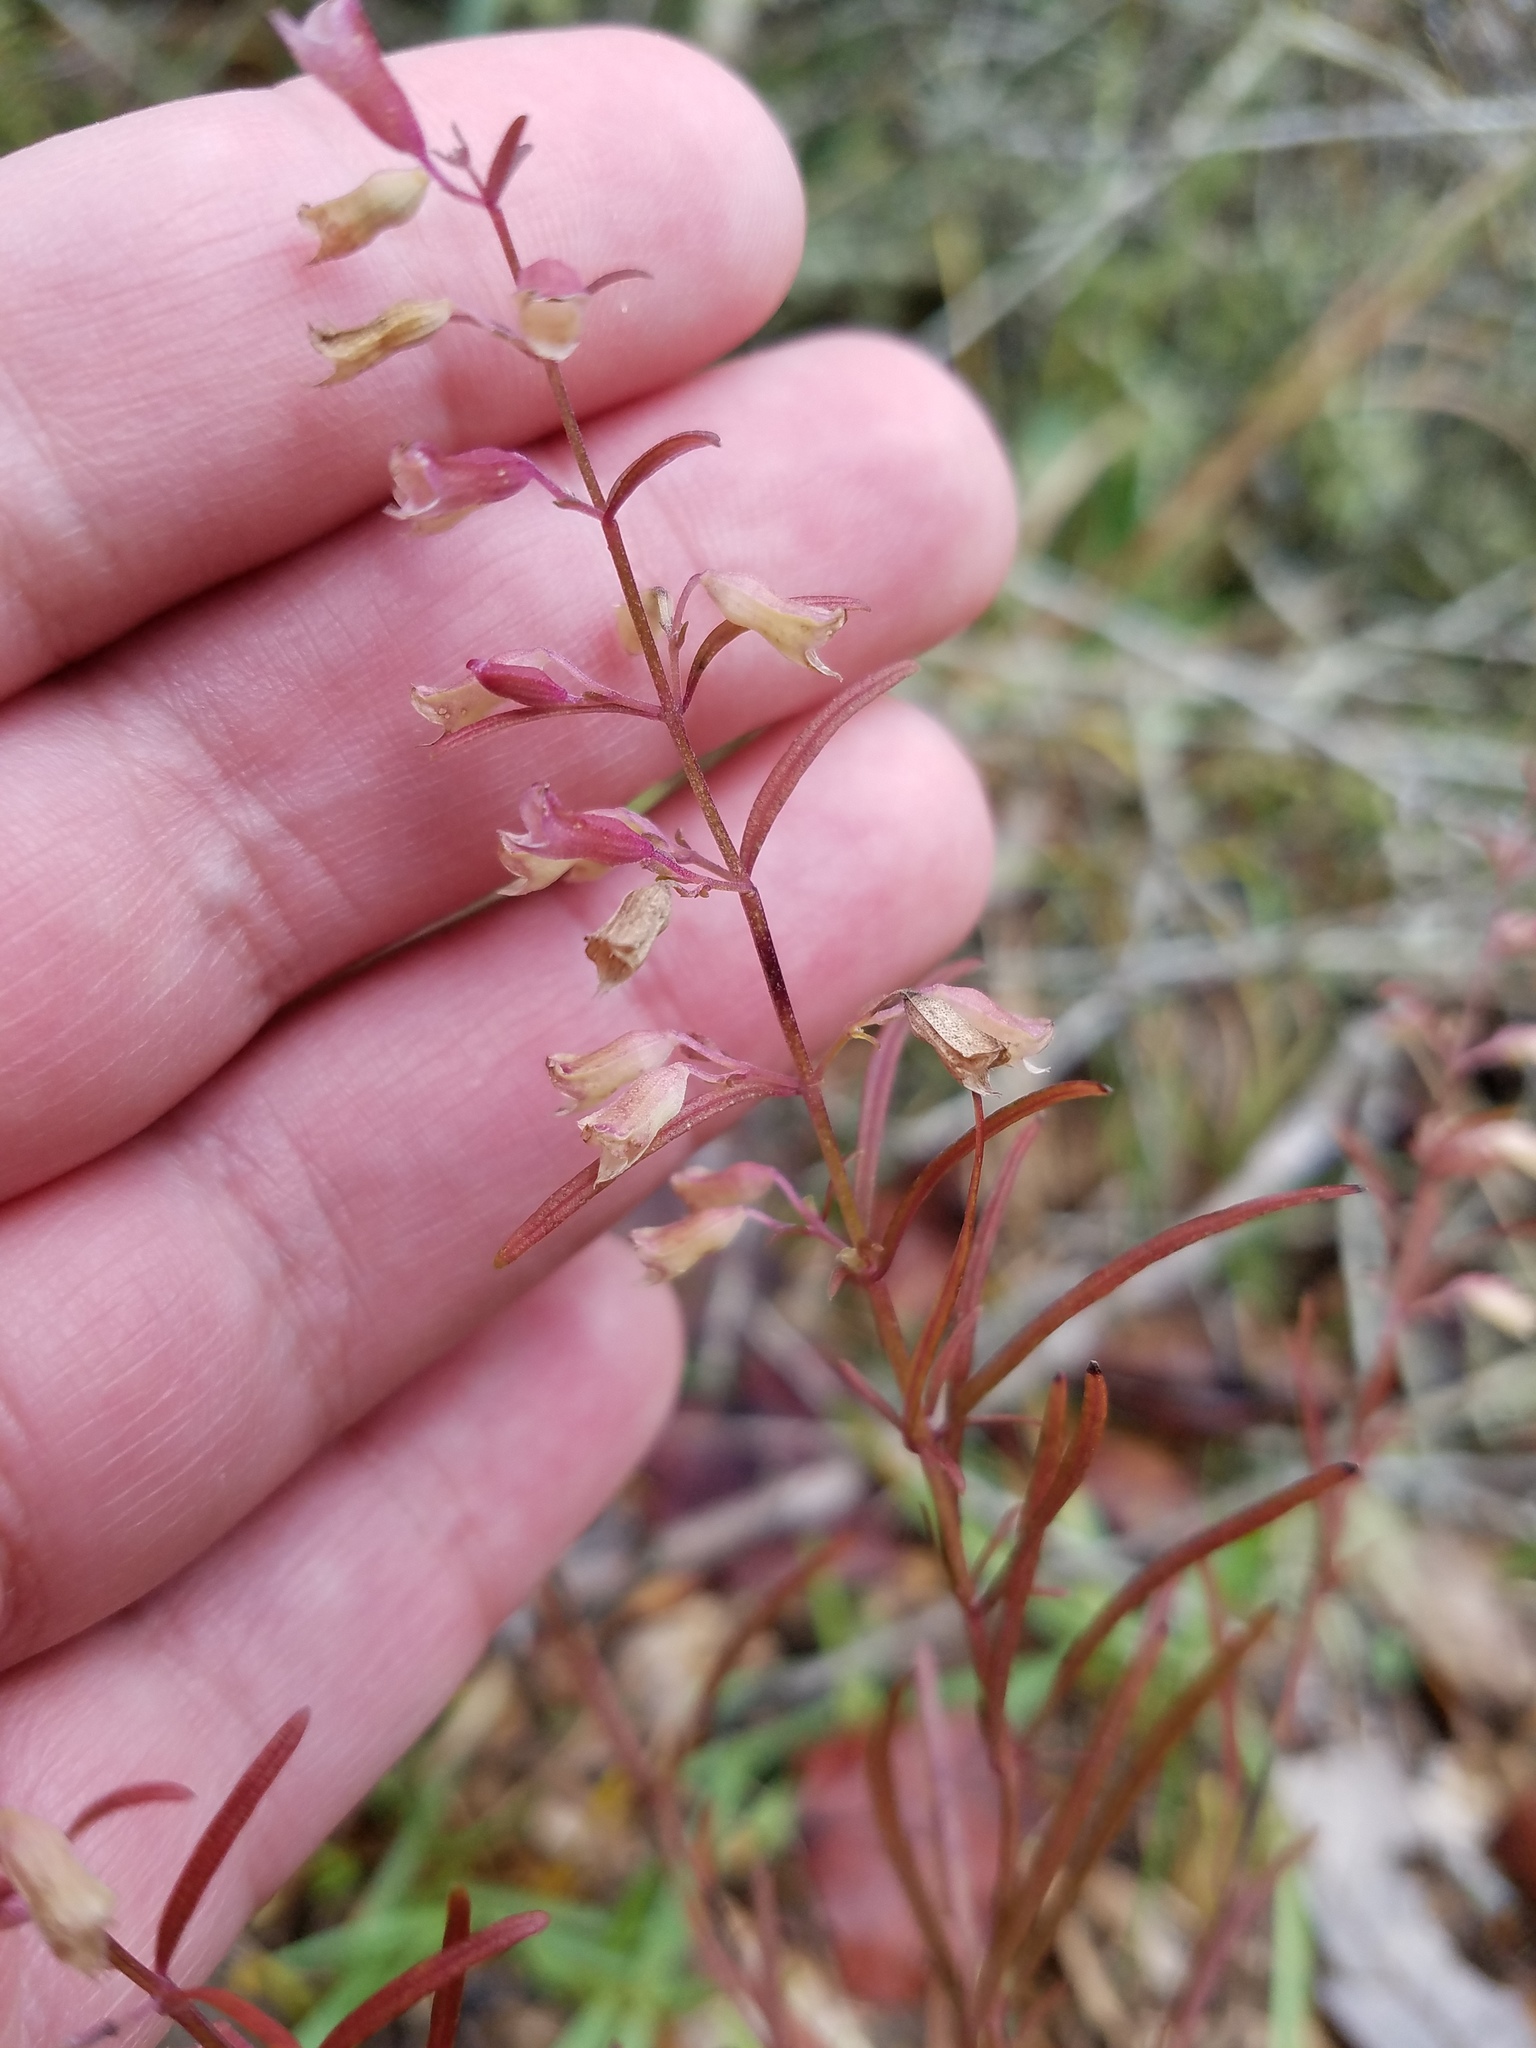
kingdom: Plantae
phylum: Tracheophyta
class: Magnoliopsida
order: Lamiales
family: Lamiaceae
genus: Dicerandra
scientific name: Dicerandra linearifolia
